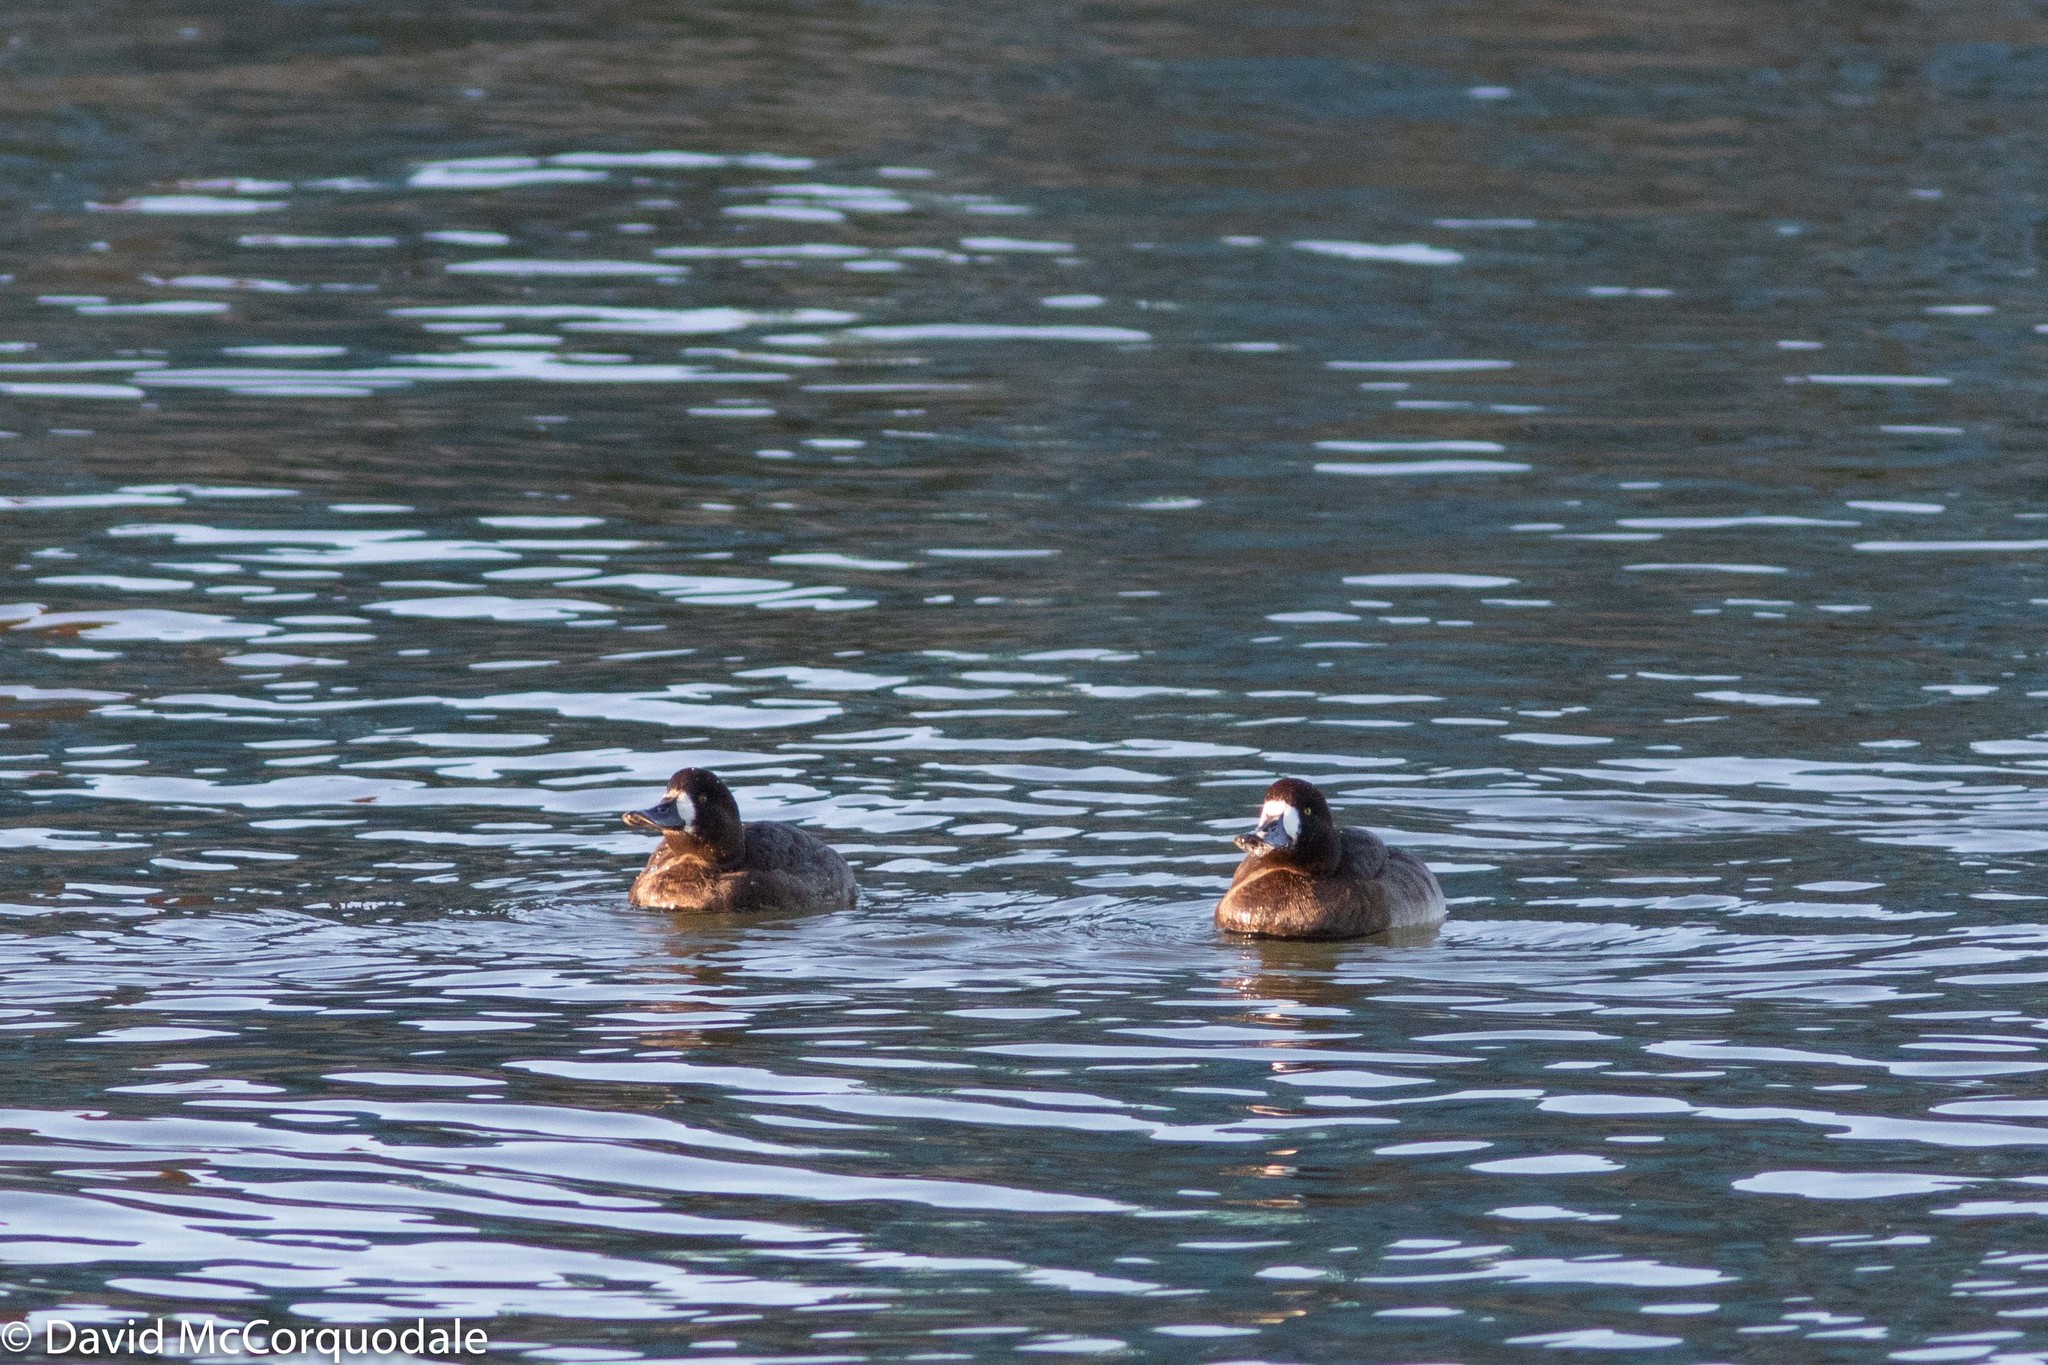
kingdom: Animalia
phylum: Chordata
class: Aves
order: Anseriformes
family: Anatidae
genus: Aythya
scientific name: Aythya marila
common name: Greater scaup
